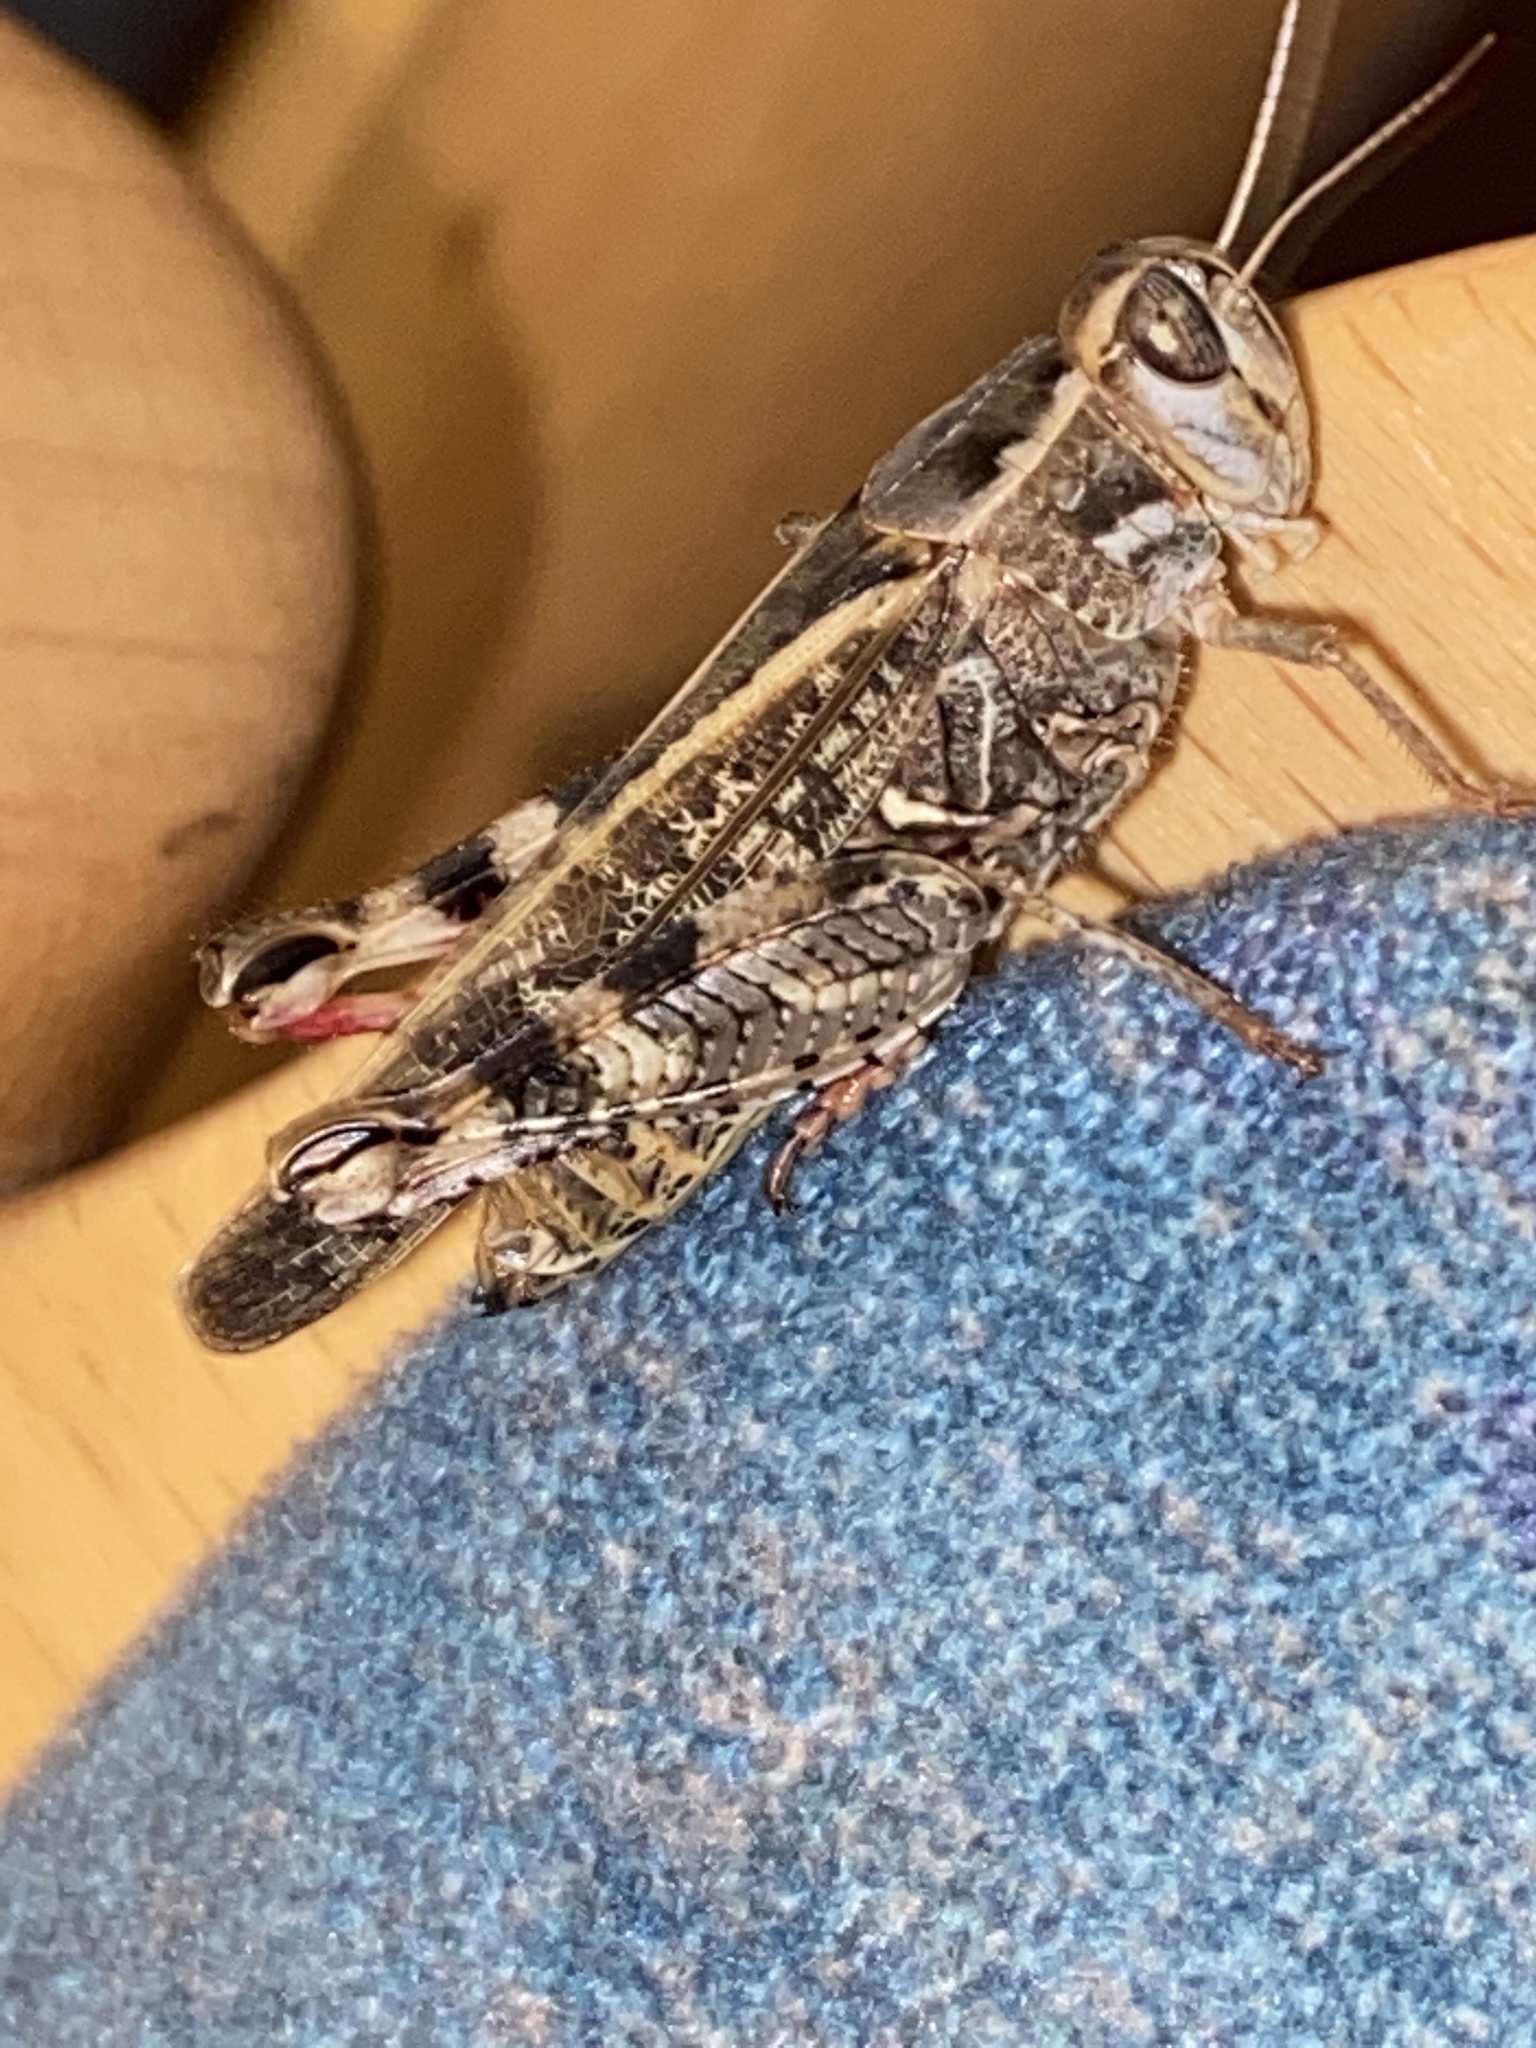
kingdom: Animalia
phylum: Arthropoda
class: Insecta
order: Orthoptera
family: Acrididae
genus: Calliptamus
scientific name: Calliptamus italicus
